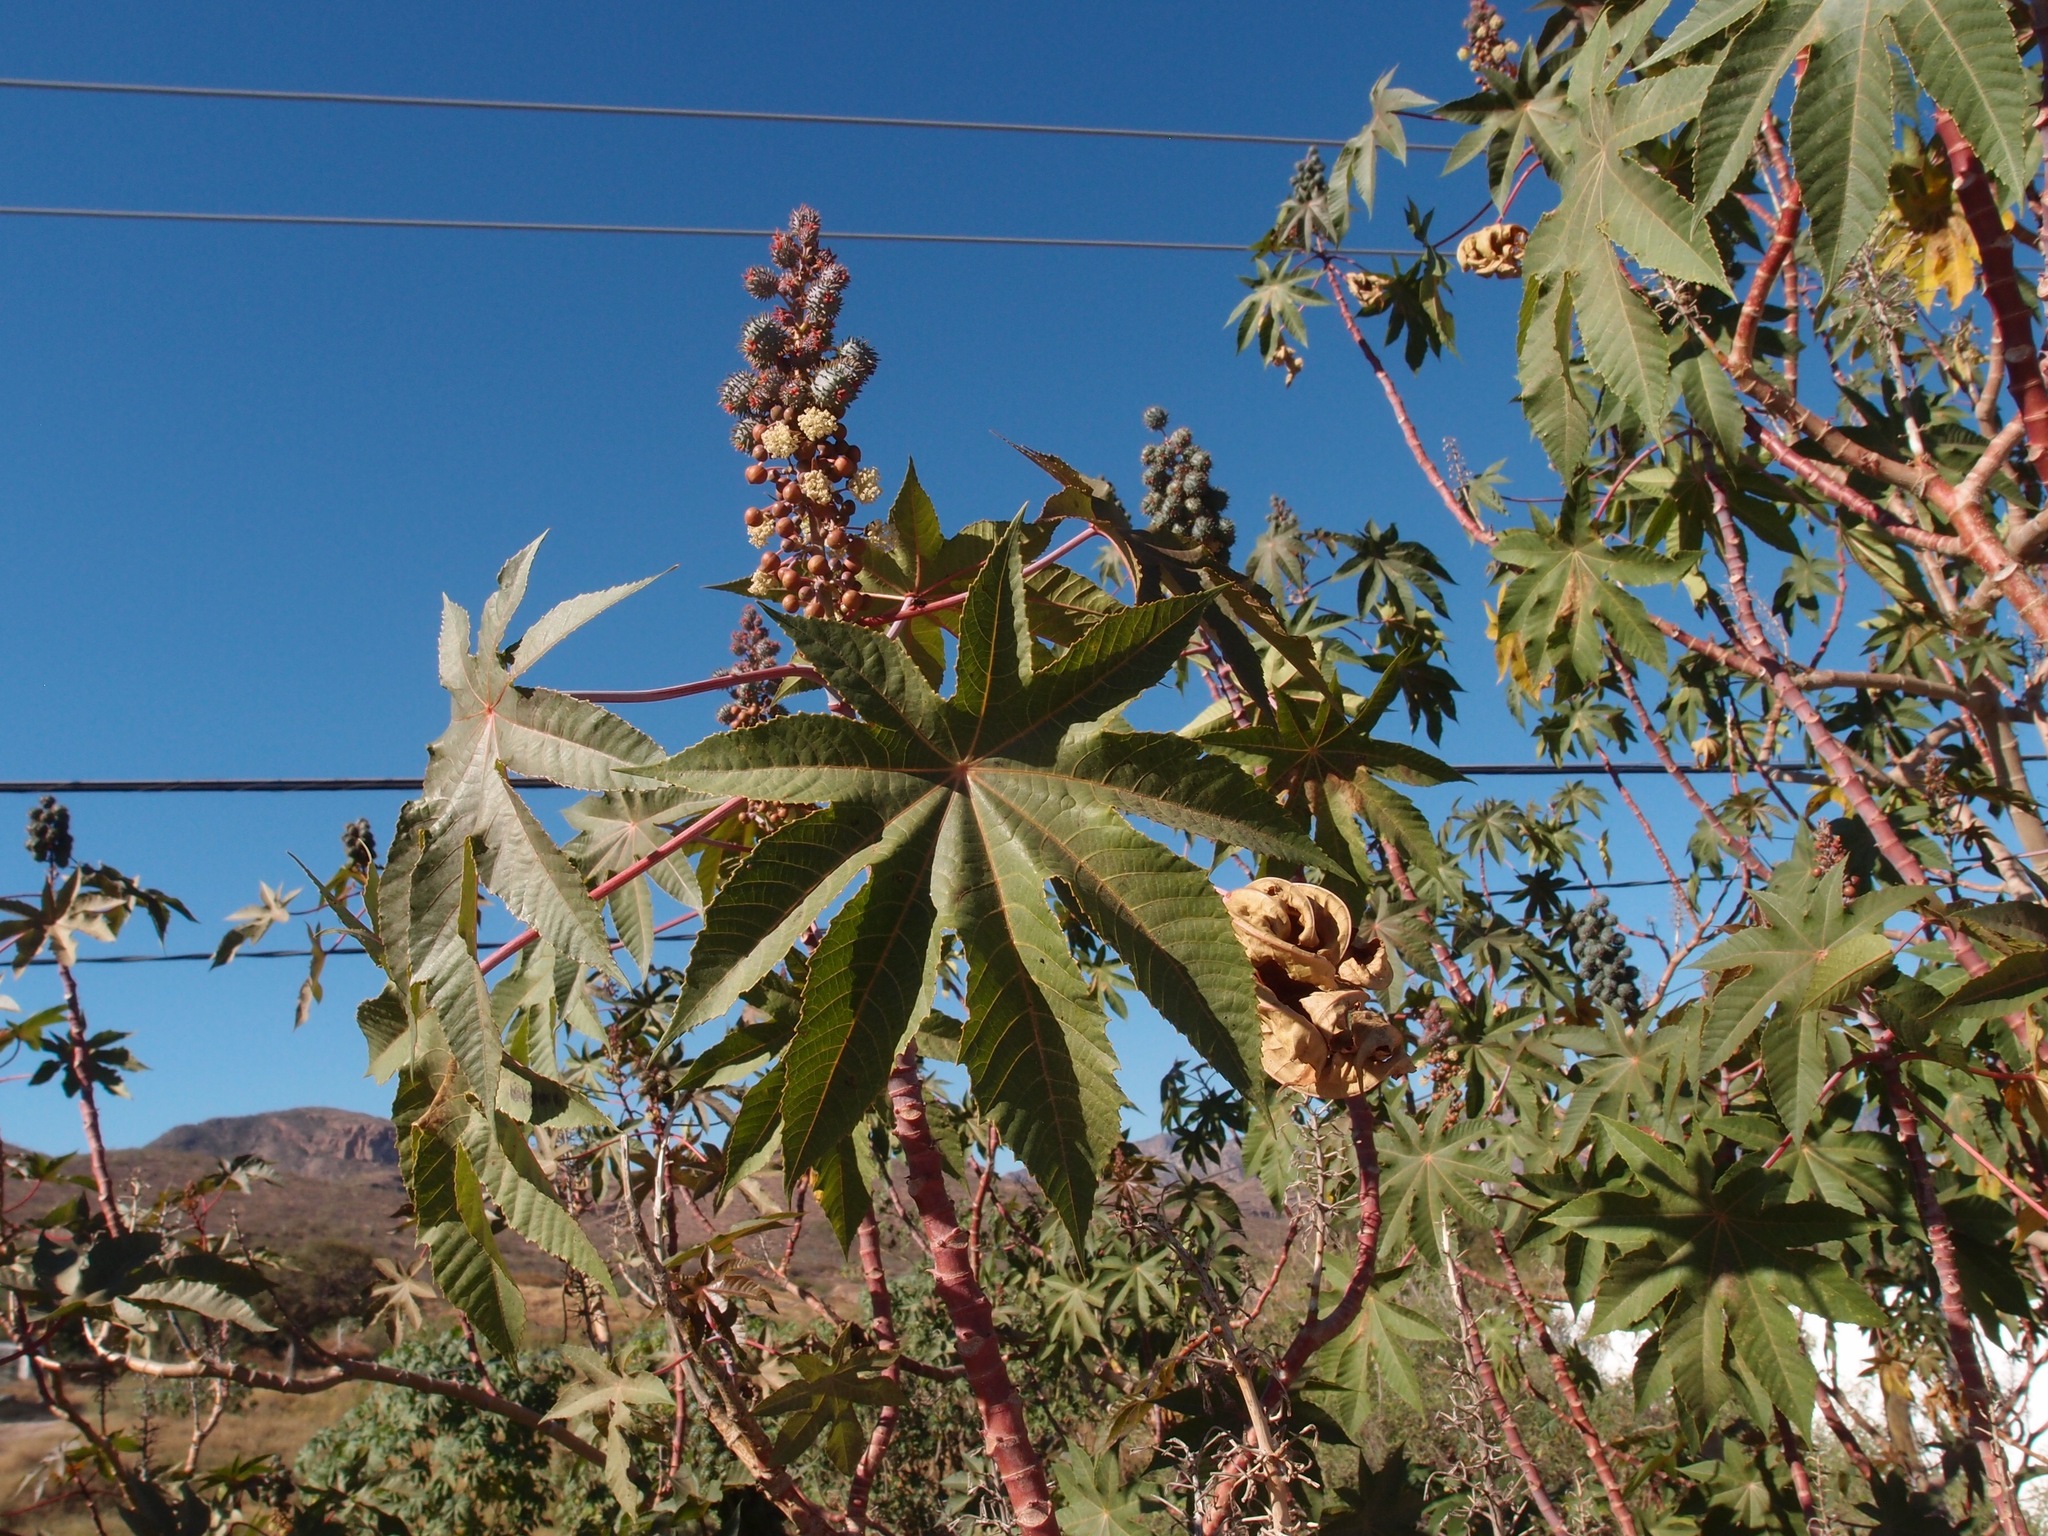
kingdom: Plantae
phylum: Tracheophyta
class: Magnoliopsida
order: Malpighiales
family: Euphorbiaceae
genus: Ricinus
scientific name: Ricinus communis
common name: Castor-oil-plant
